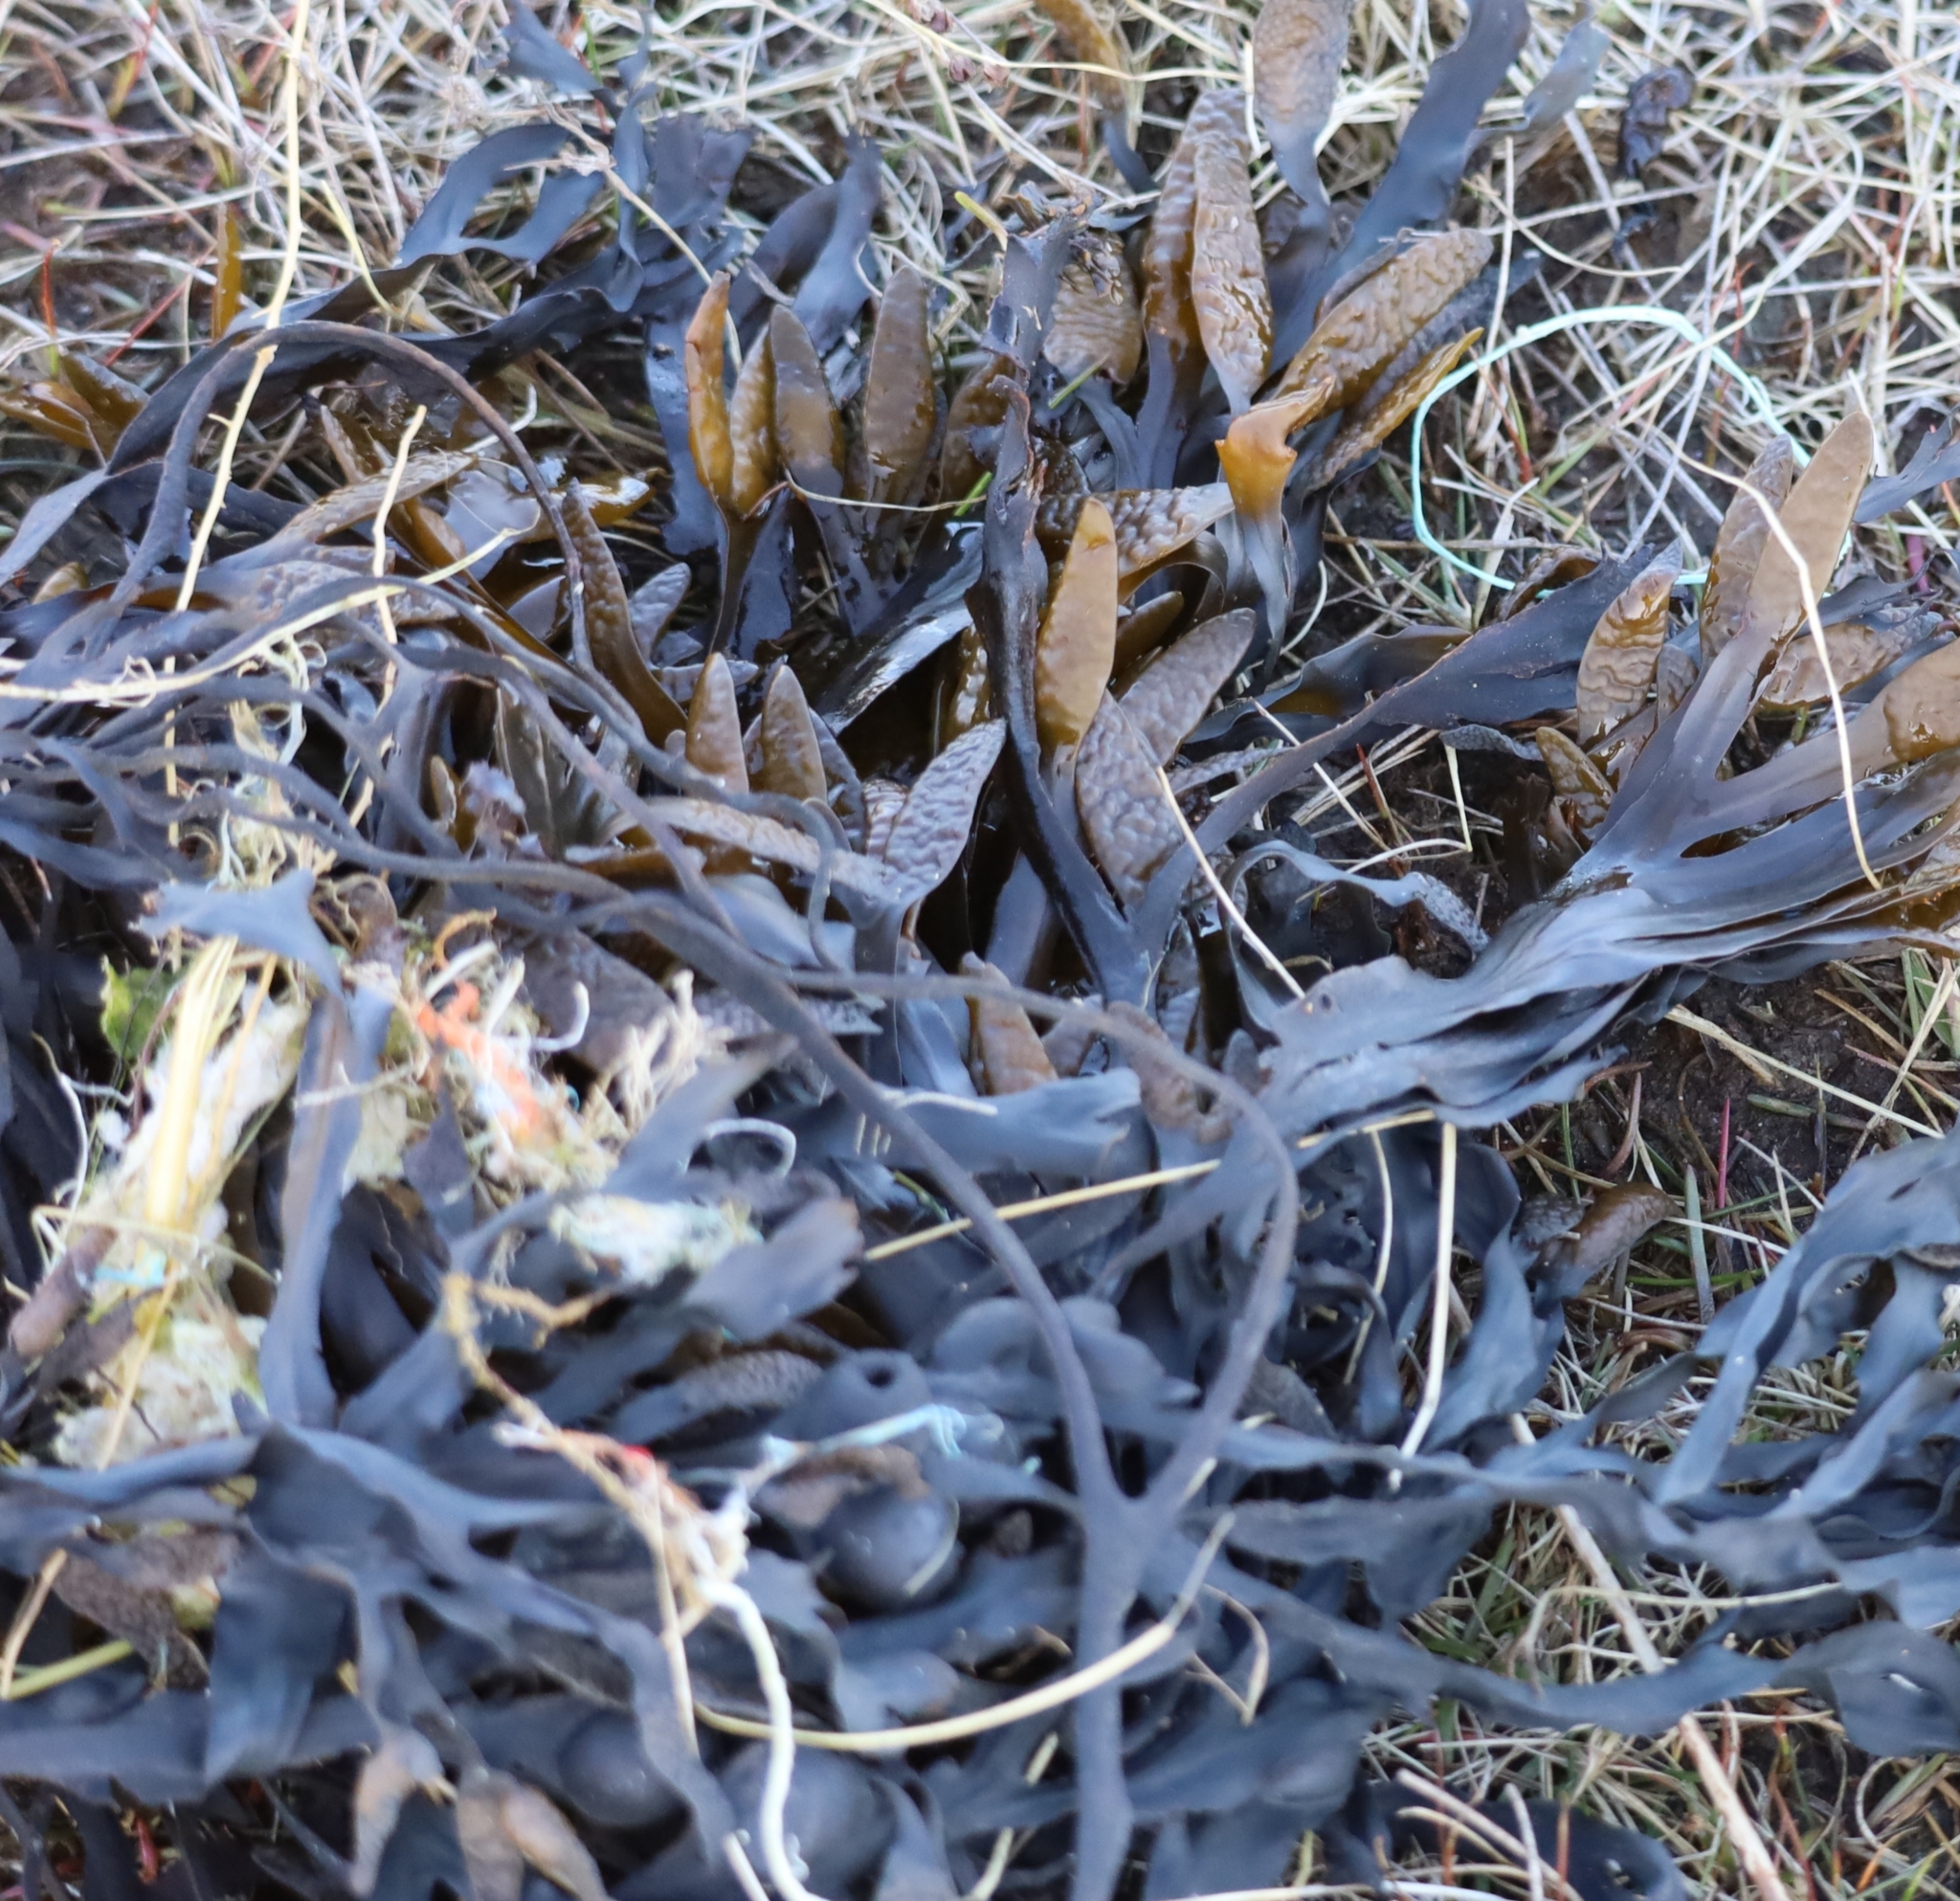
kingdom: Chromista
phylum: Ochrophyta
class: Phaeophyceae
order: Fucales
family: Fucaceae
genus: Fucus
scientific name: Fucus serratus
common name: Toothed wrack
